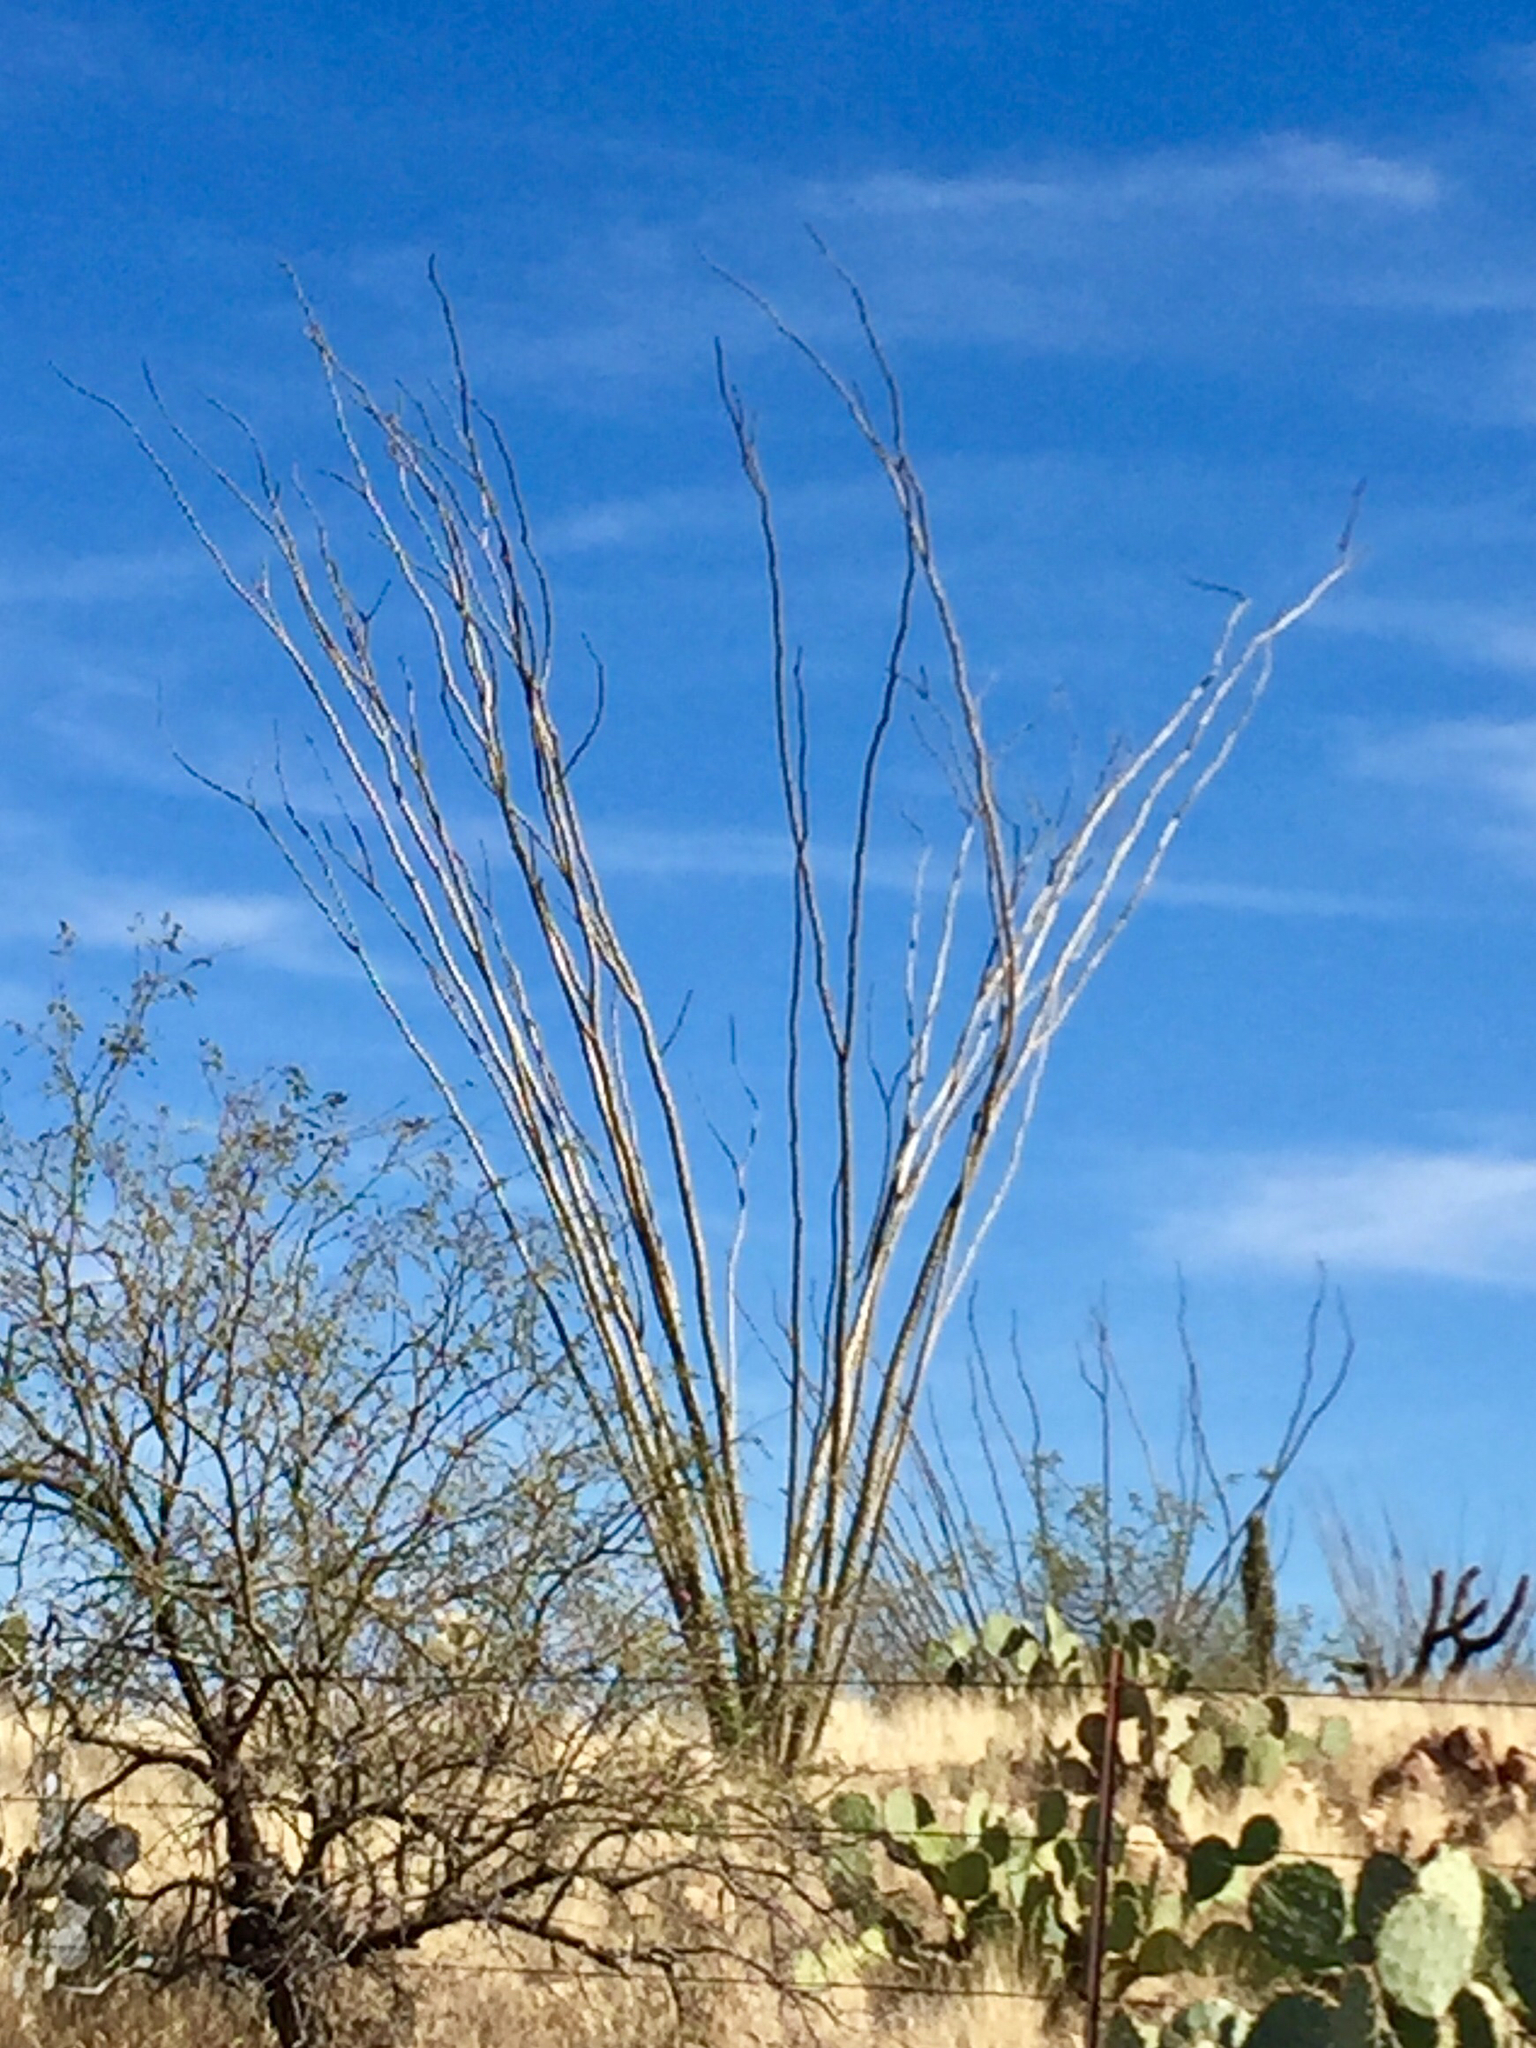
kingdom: Plantae
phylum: Tracheophyta
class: Magnoliopsida
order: Ericales
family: Fouquieriaceae
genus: Fouquieria
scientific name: Fouquieria splendens
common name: Vine-cactus
